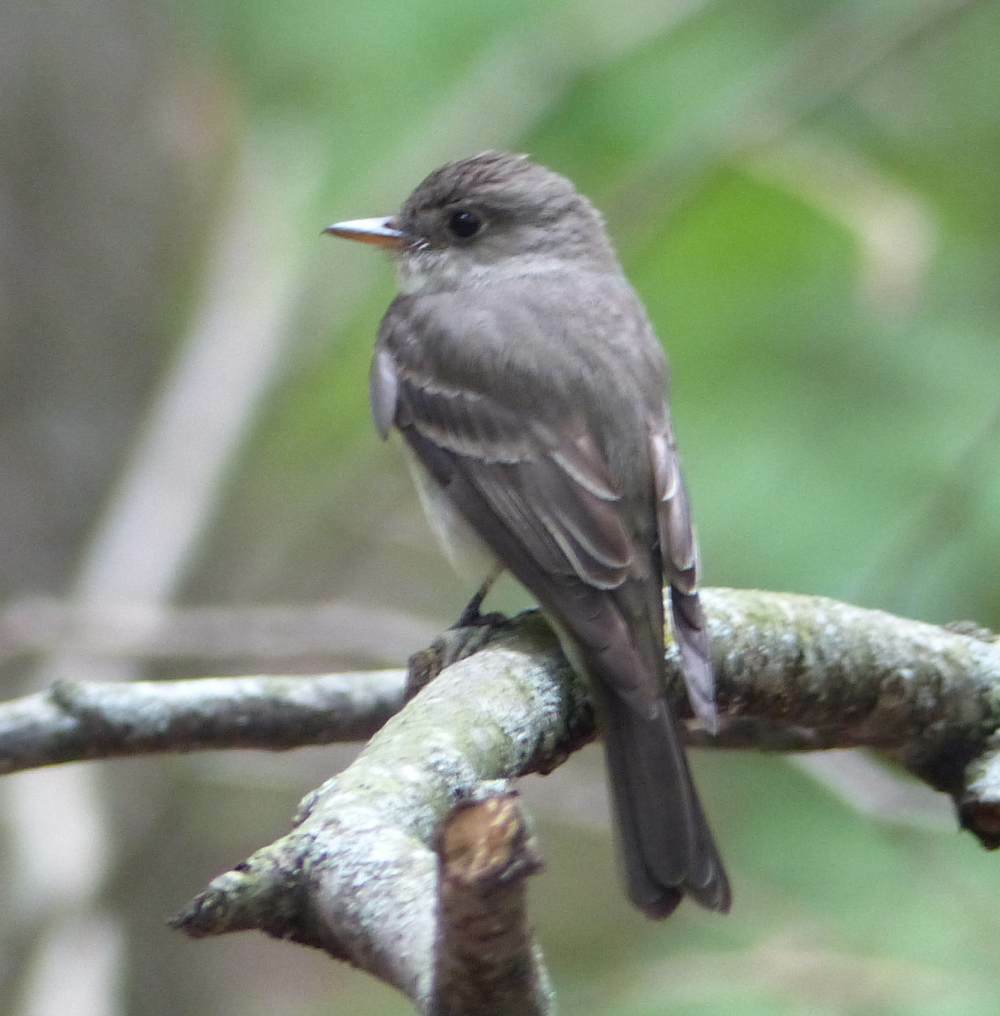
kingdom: Animalia
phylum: Chordata
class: Aves
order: Passeriformes
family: Tyrannidae
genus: Contopus
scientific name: Contopus virens
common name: Eastern wood-pewee
